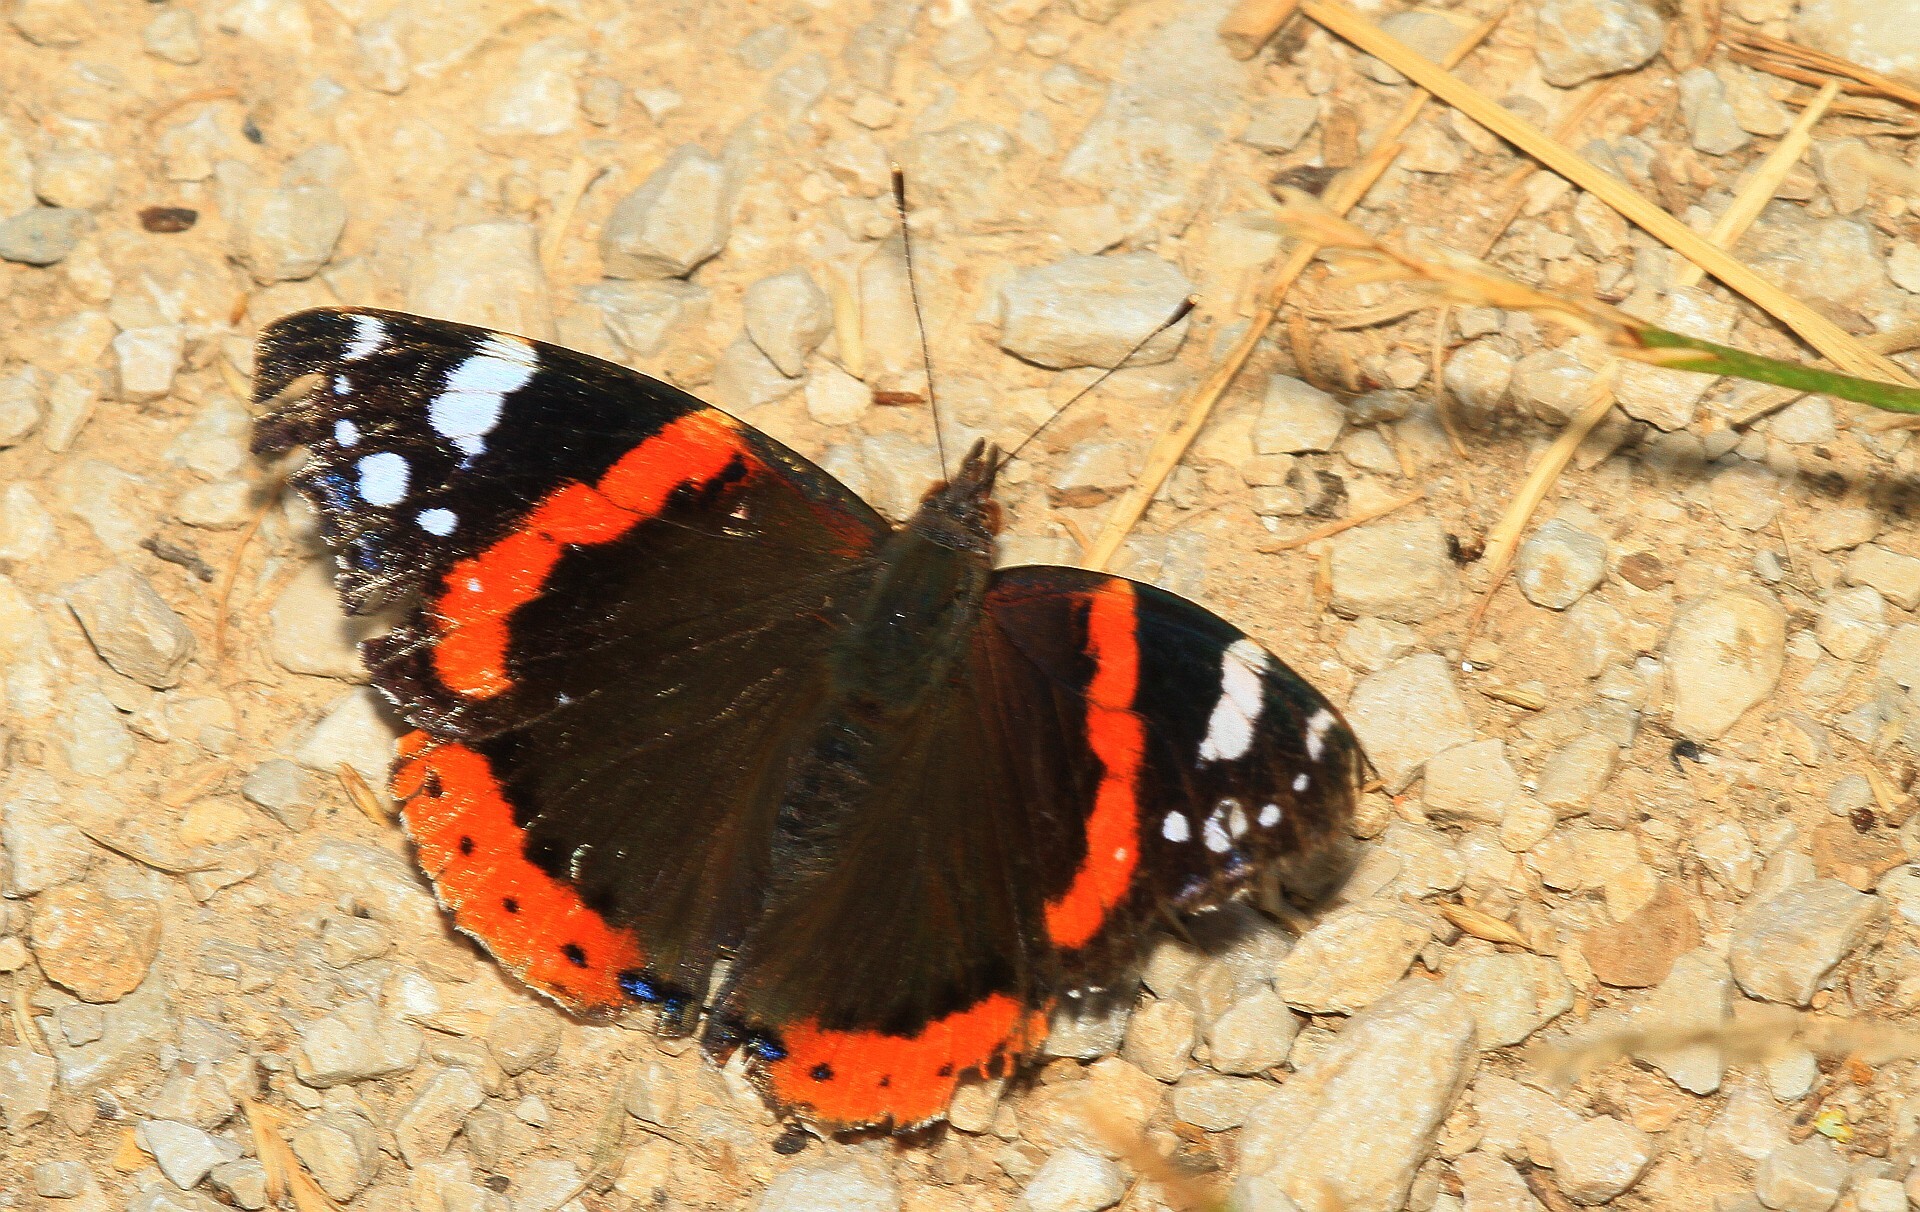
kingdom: Animalia
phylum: Arthropoda
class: Insecta
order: Lepidoptera
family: Nymphalidae
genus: Vanessa
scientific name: Vanessa atalanta
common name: Red admiral
